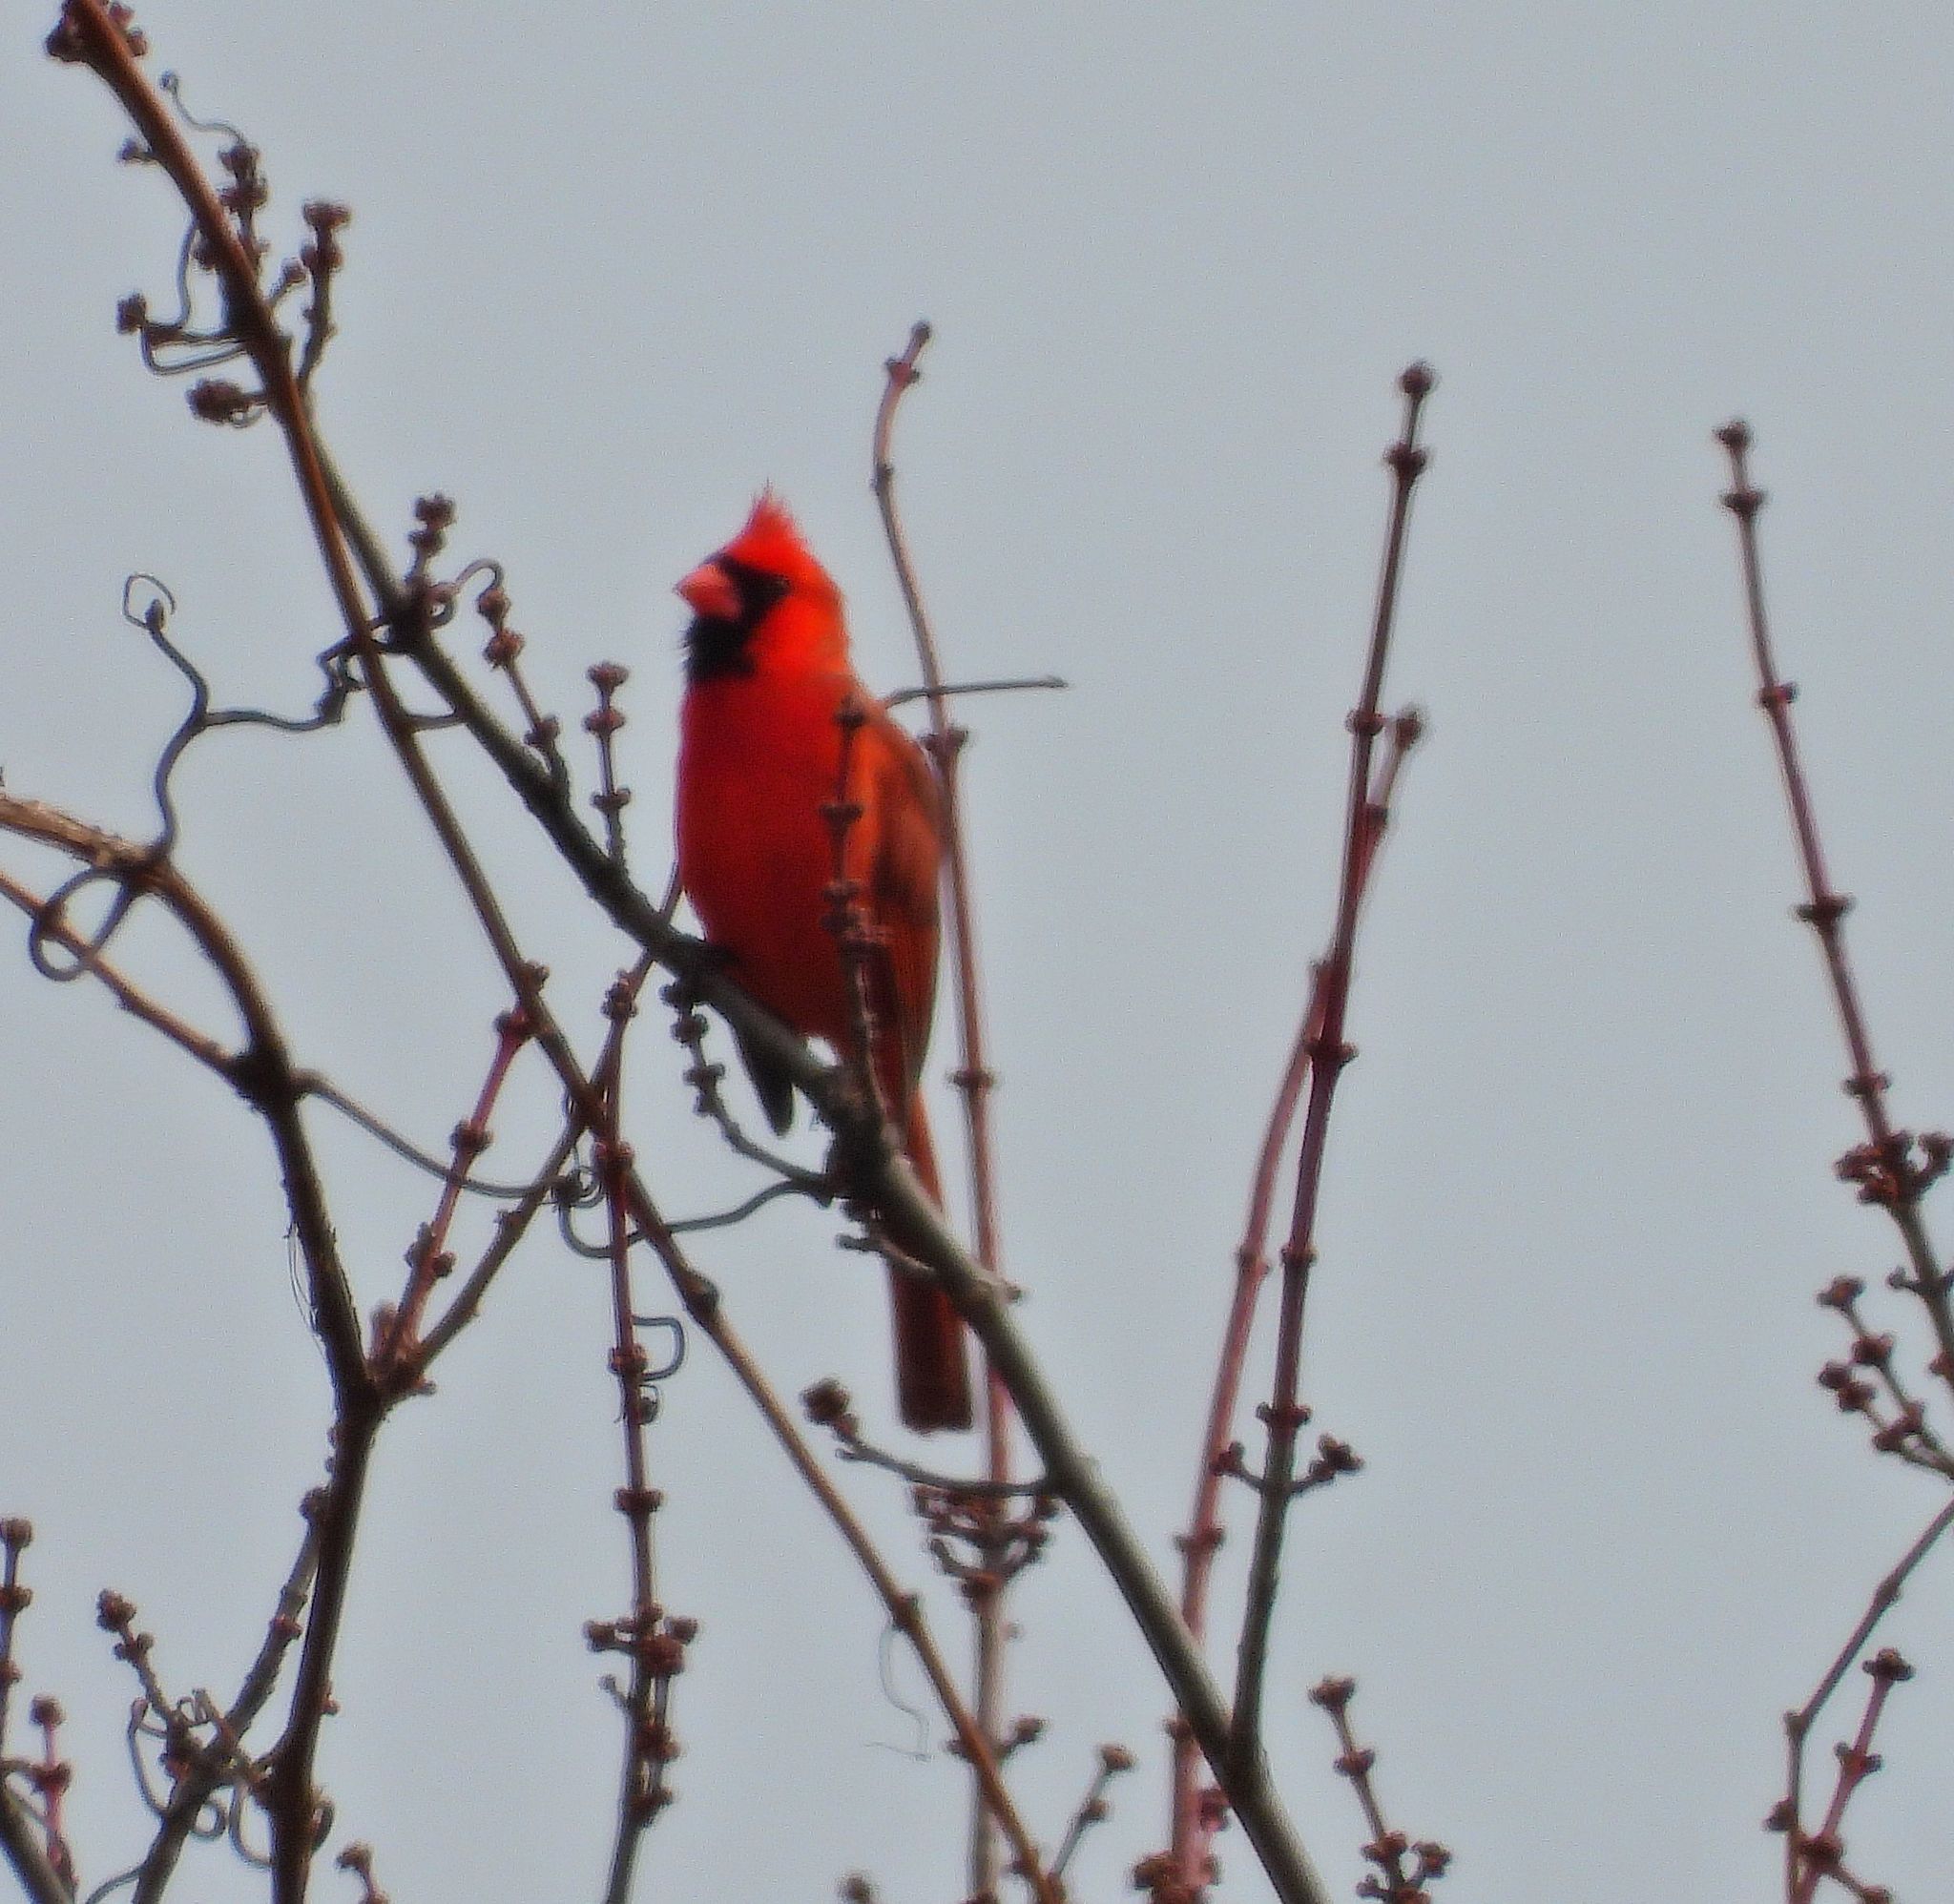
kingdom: Animalia
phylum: Chordata
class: Aves
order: Passeriformes
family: Cardinalidae
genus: Cardinalis
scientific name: Cardinalis cardinalis
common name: Northern cardinal
